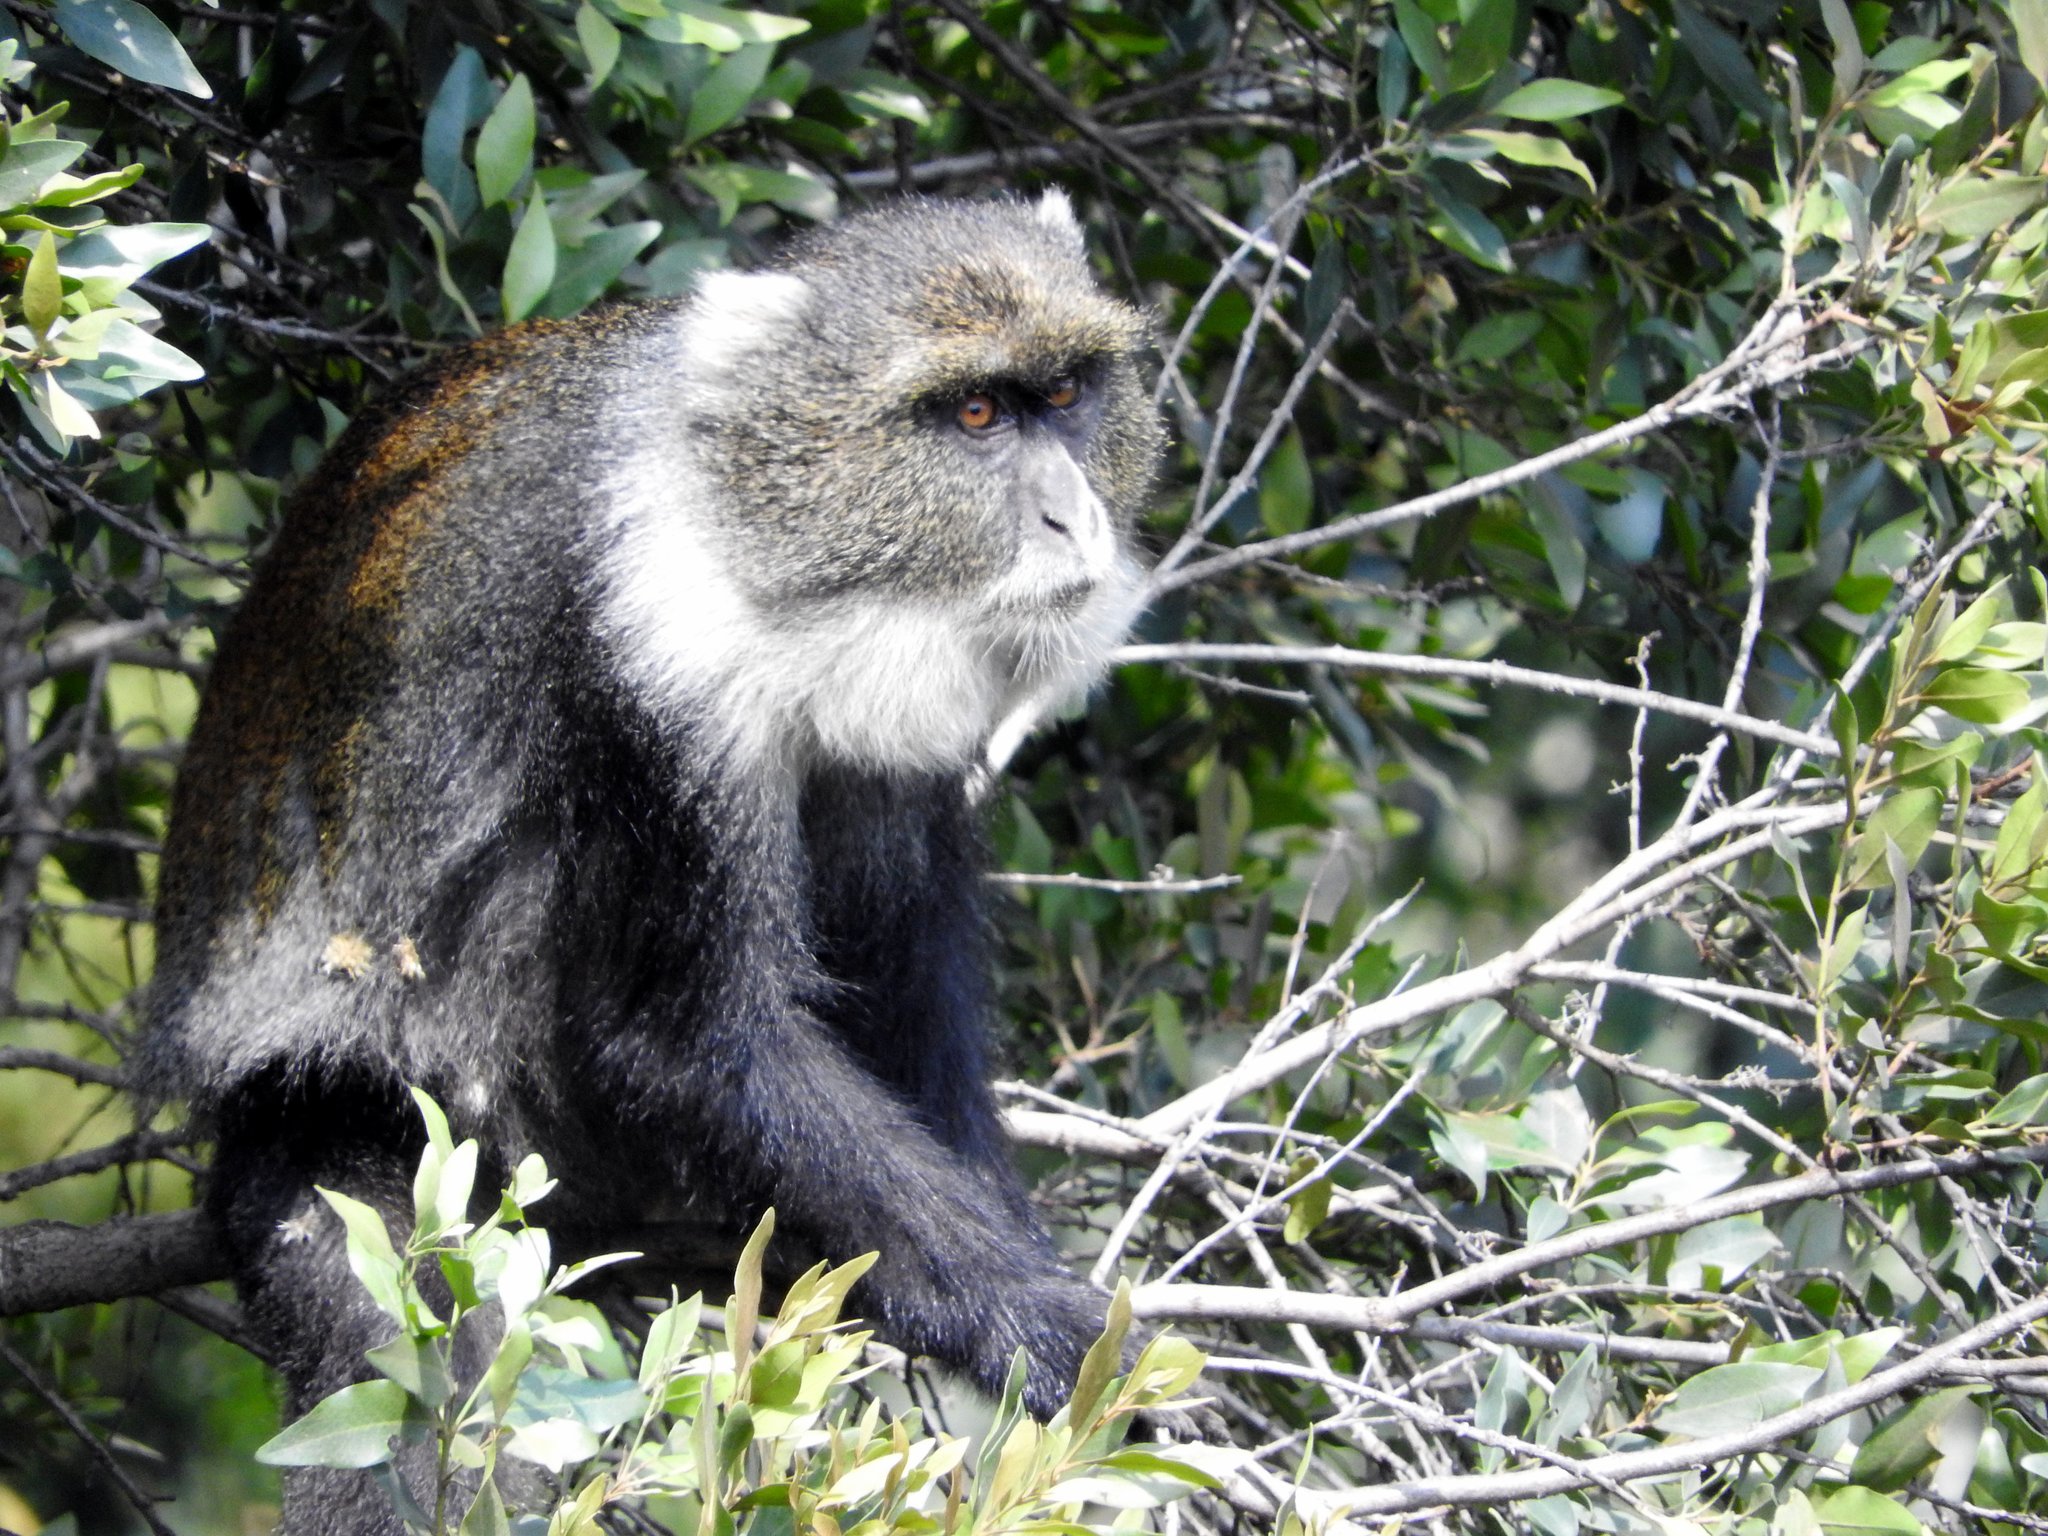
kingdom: Animalia
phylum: Chordata
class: Mammalia
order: Primates
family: Cercopithecidae
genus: Cercopithecus
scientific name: Cercopithecus mitis
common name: Blue monkey
